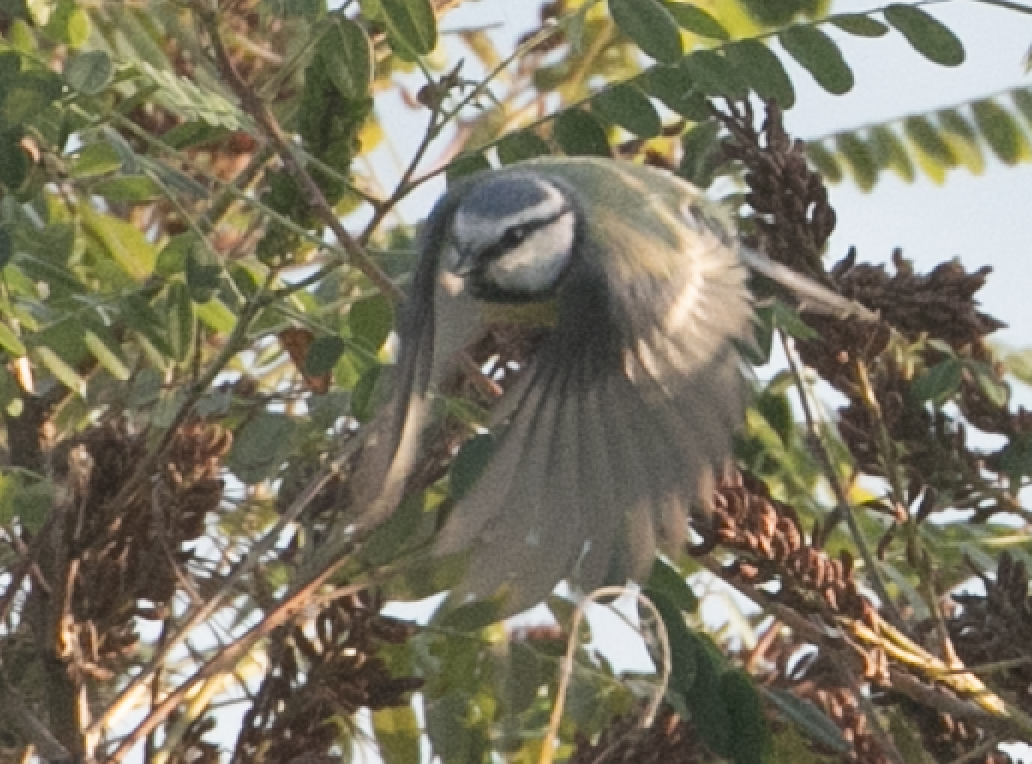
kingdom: Animalia
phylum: Chordata
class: Aves
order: Passeriformes
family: Paridae
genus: Cyanistes
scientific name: Cyanistes caeruleus
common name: Eurasian blue tit
